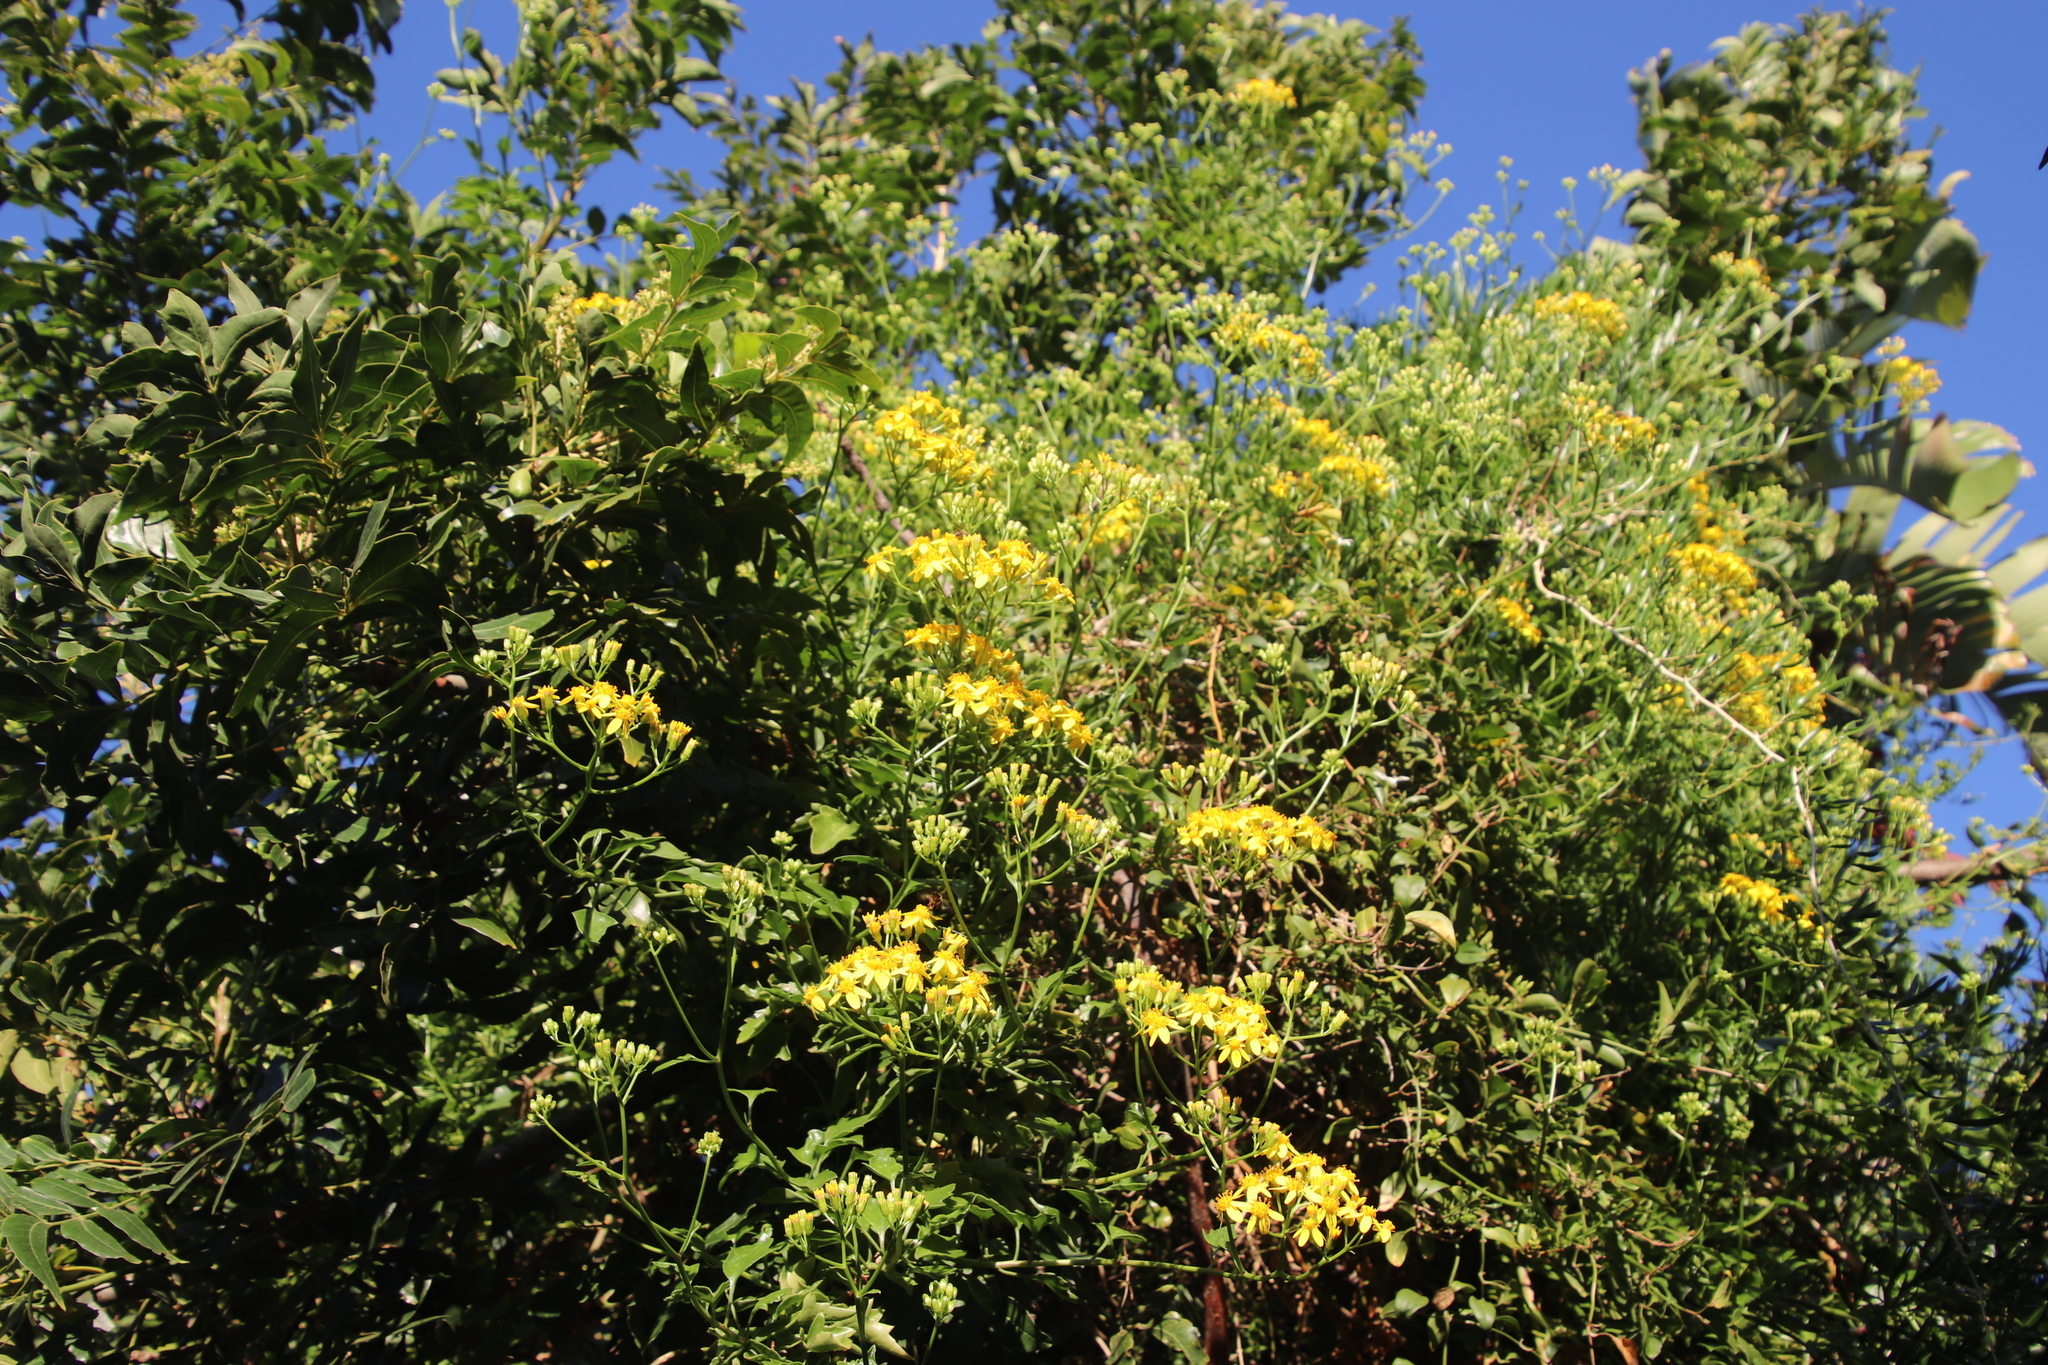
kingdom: Plantae
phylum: Tracheophyta
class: Magnoliopsida
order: Asterales
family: Asteraceae
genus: Senecio
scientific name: Senecio tamoides
